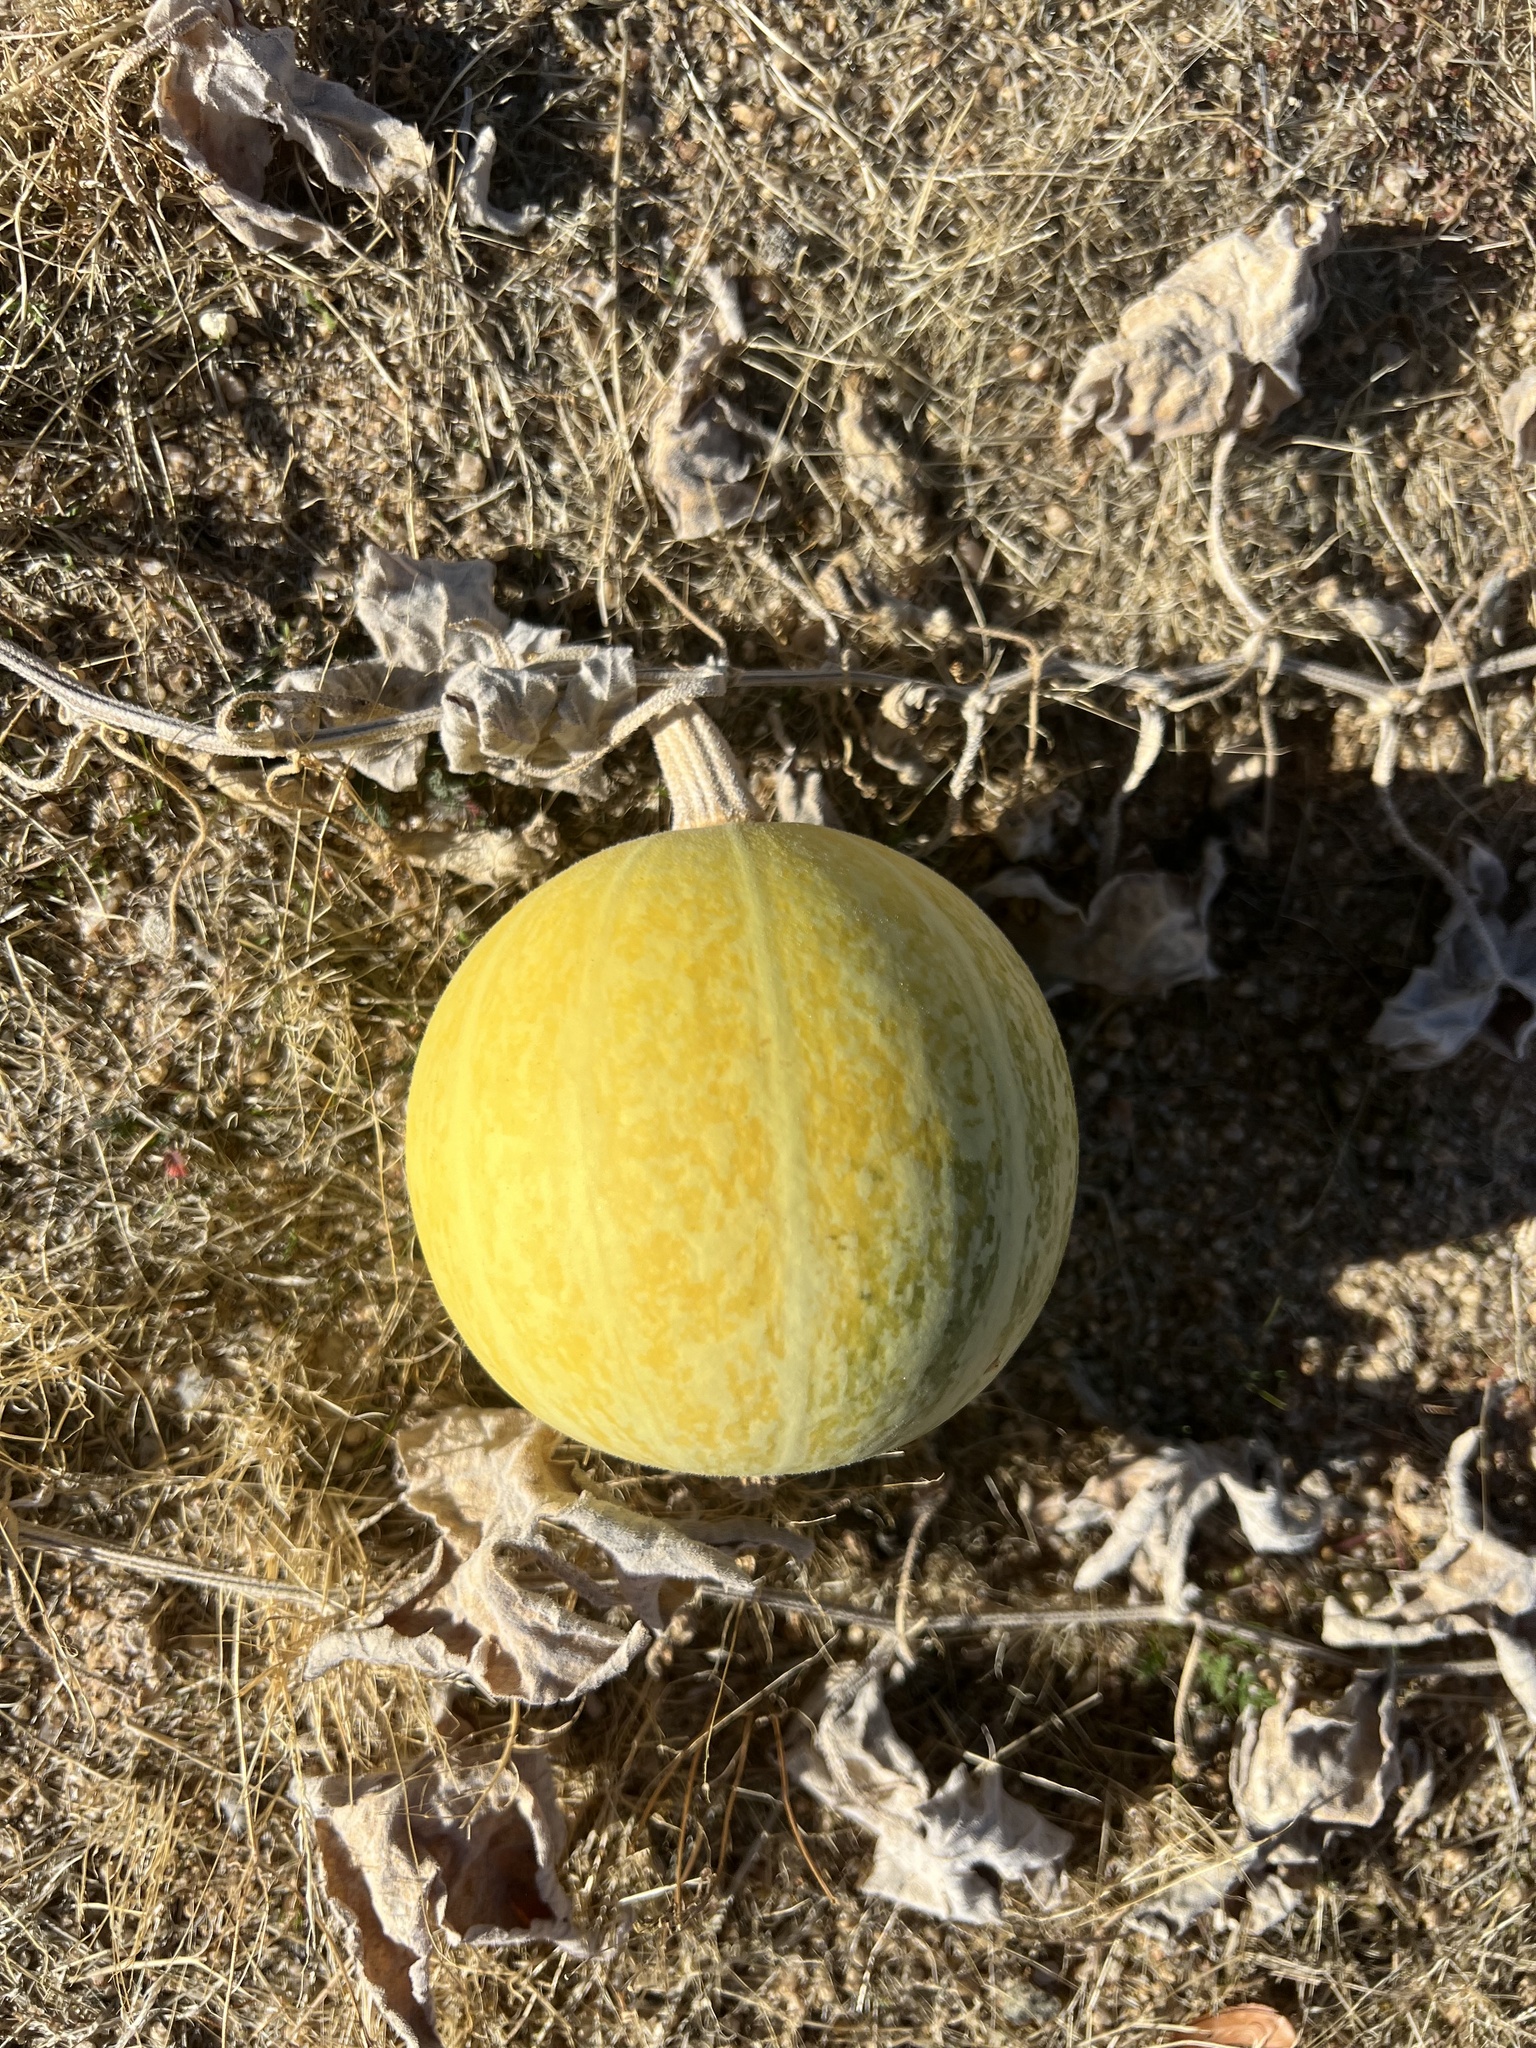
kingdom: Plantae
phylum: Tracheophyta
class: Magnoliopsida
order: Cucurbitales
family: Cucurbitaceae
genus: Cucurbita
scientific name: Cucurbita palmata
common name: Coyote-melon
